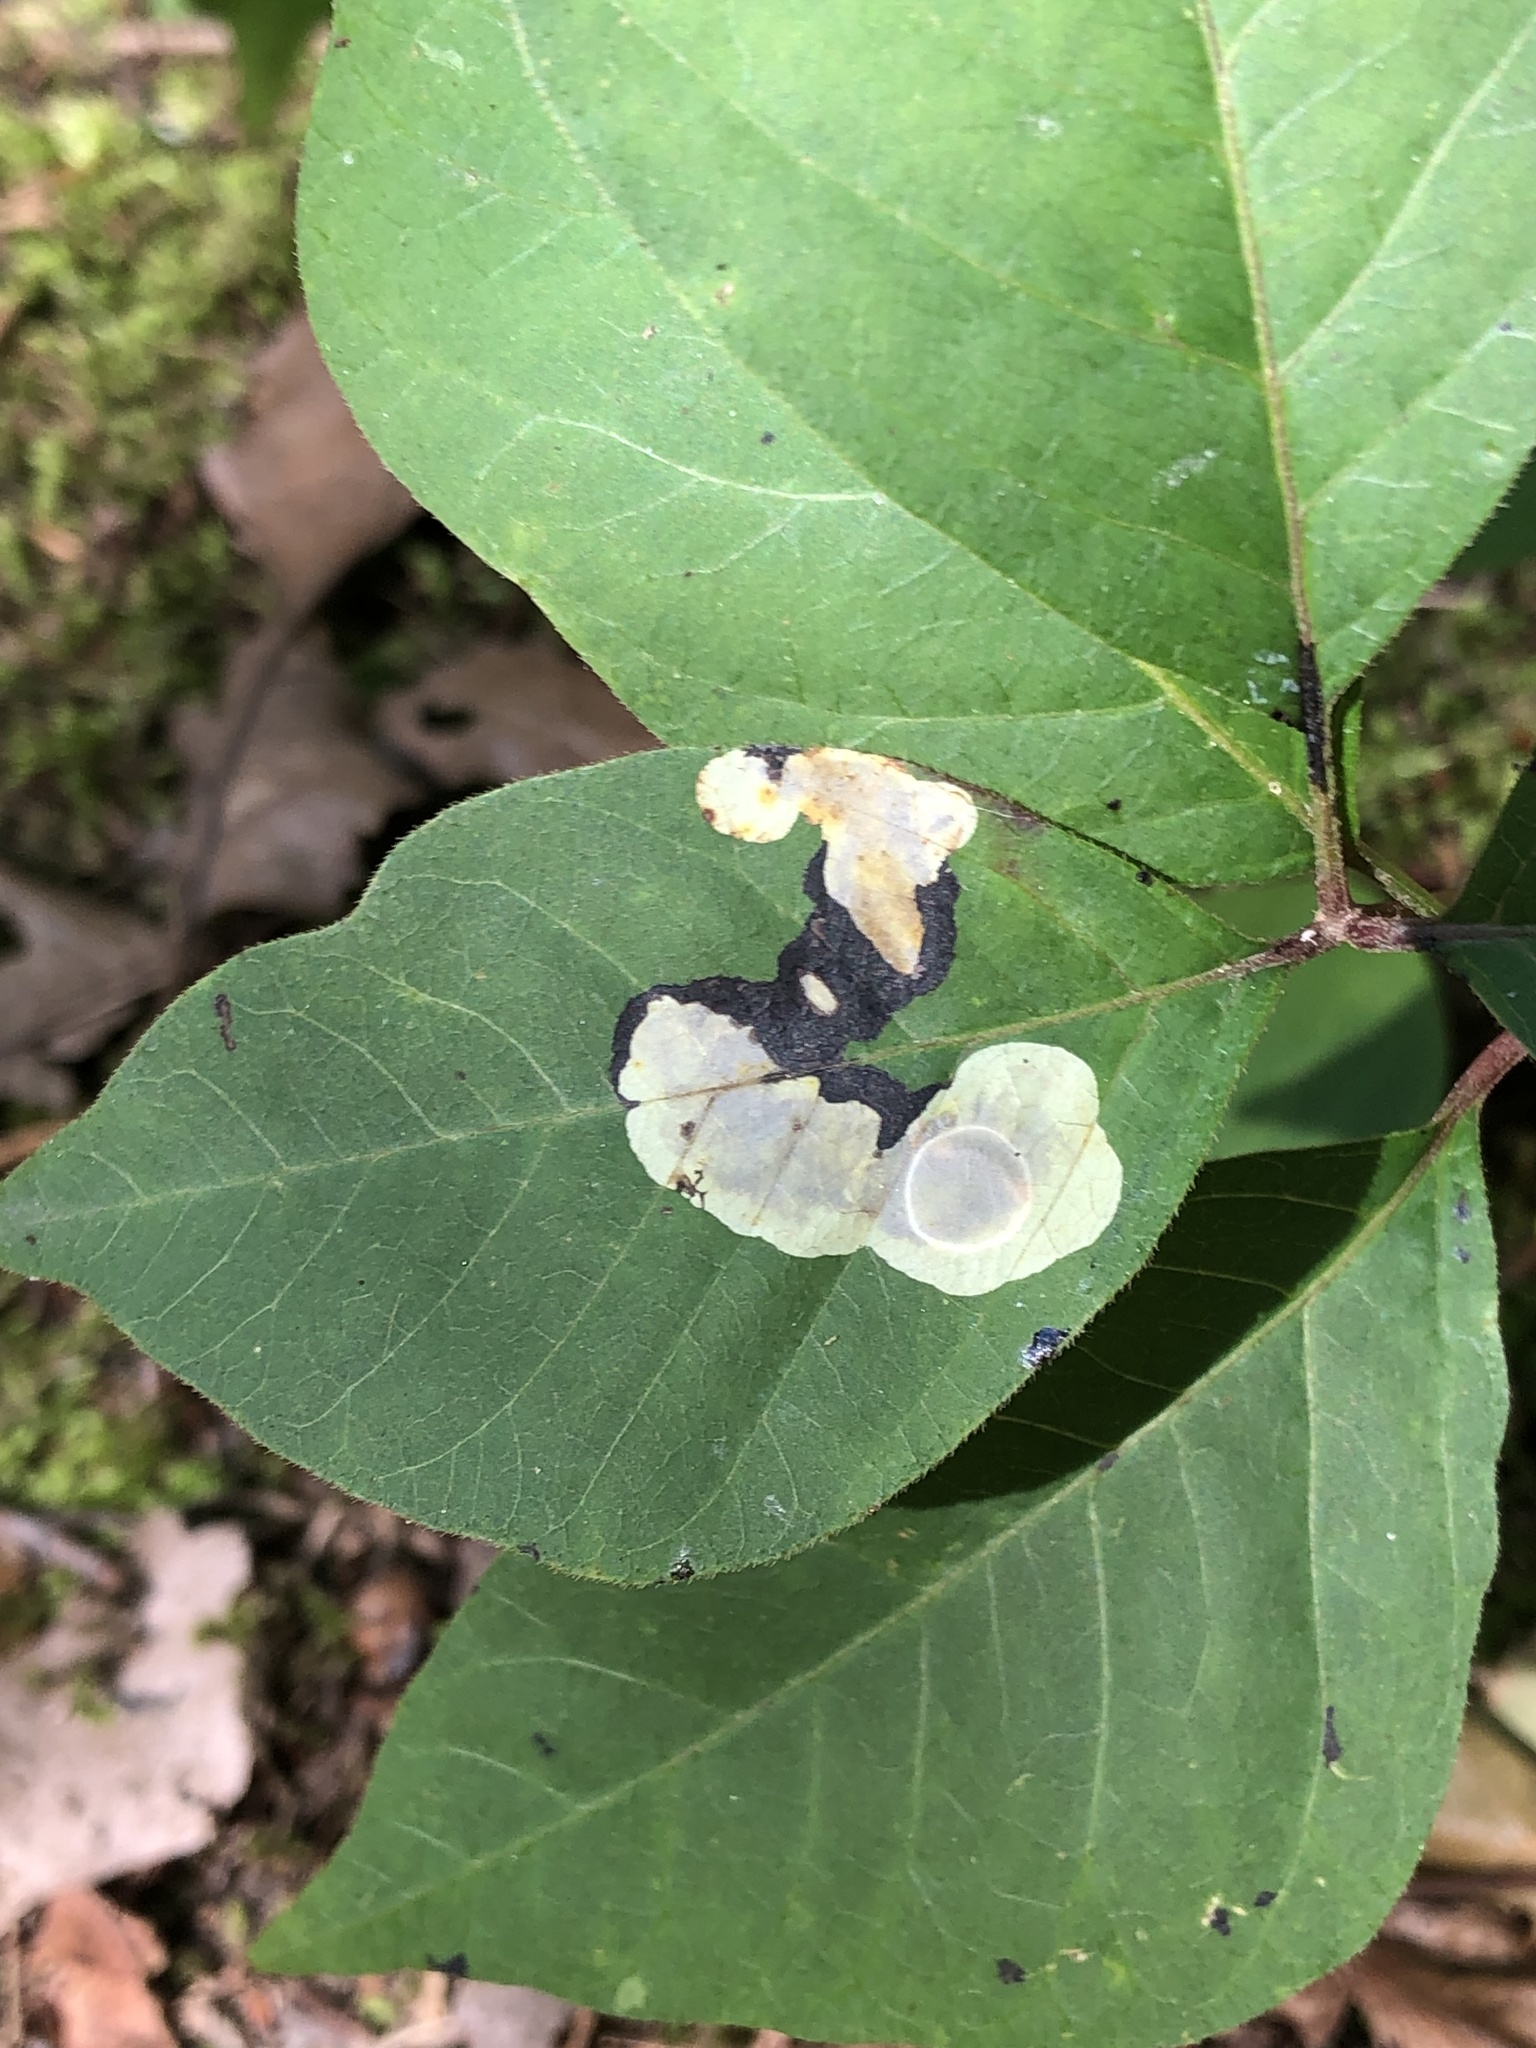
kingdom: Animalia
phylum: Arthropoda
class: Insecta
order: Lepidoptera
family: Gracillariidae
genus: Cameraria
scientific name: Cameraria guttifinitella
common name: Poison ivy leaf-miner moth
